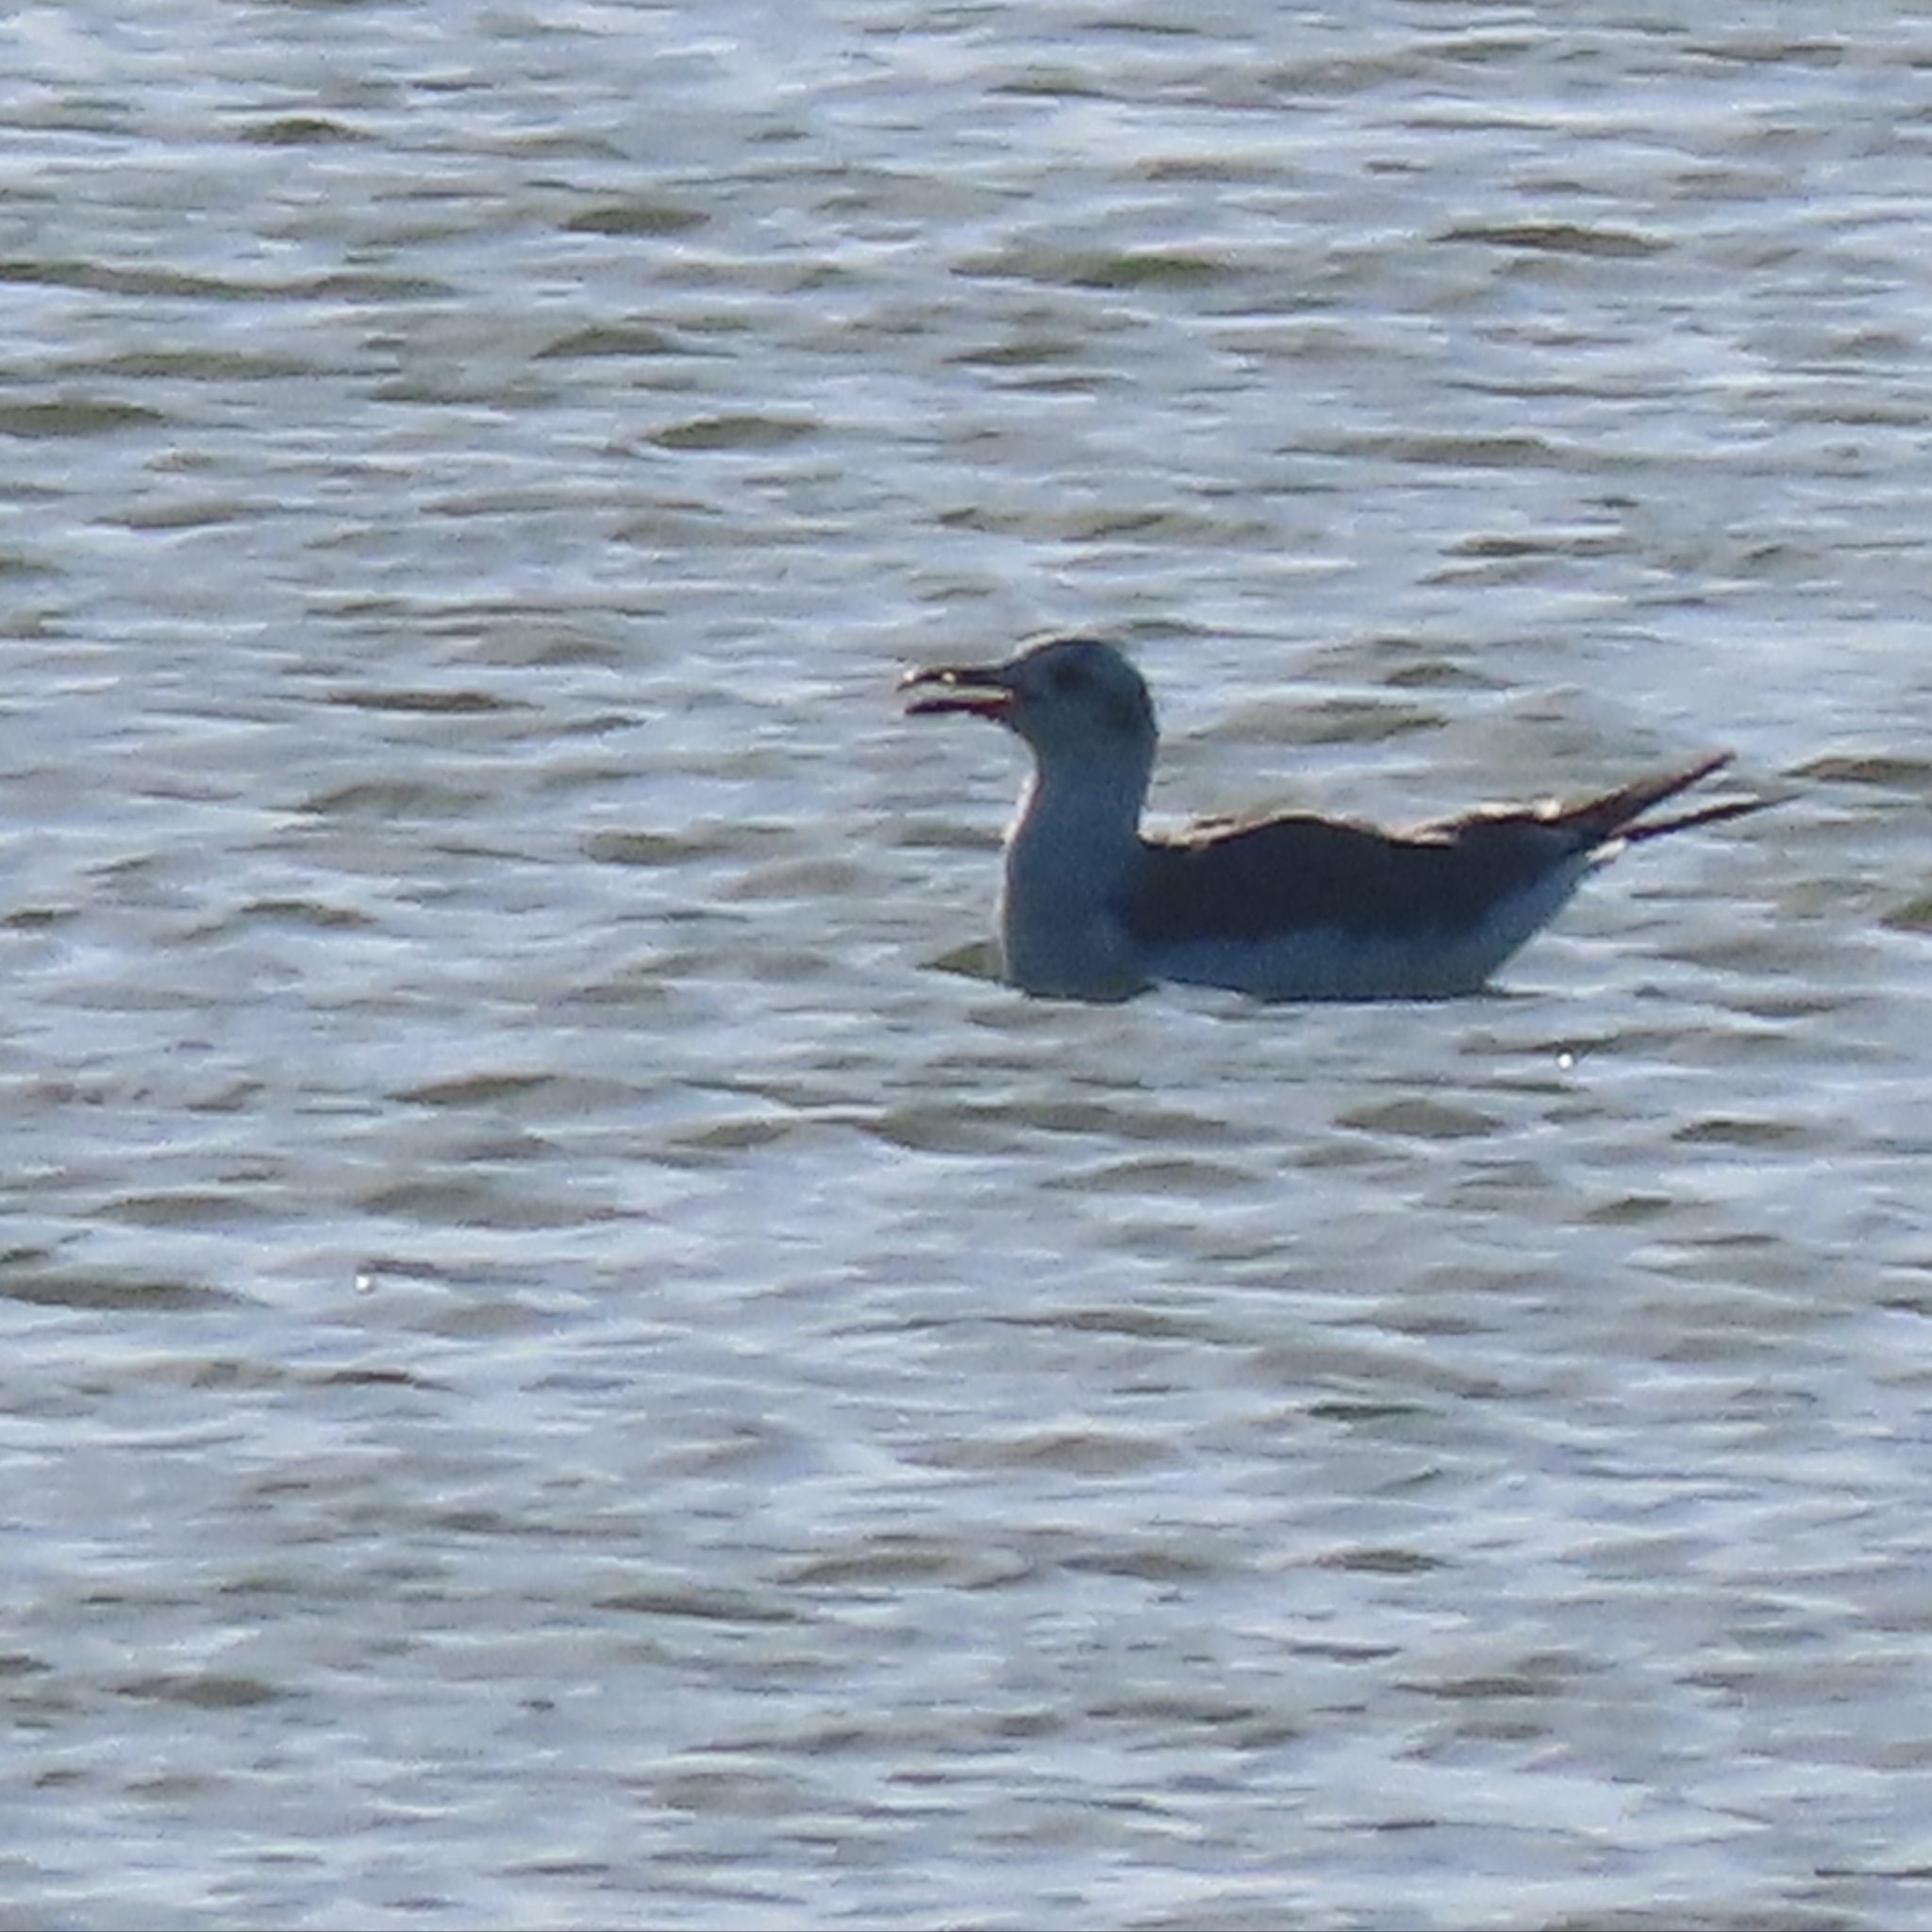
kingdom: Animalia
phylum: Chordata
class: Aves
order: Charadriiformes
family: Laridae
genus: Leucophaeus
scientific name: Leucophaeus atricilla
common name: Laughing gull
